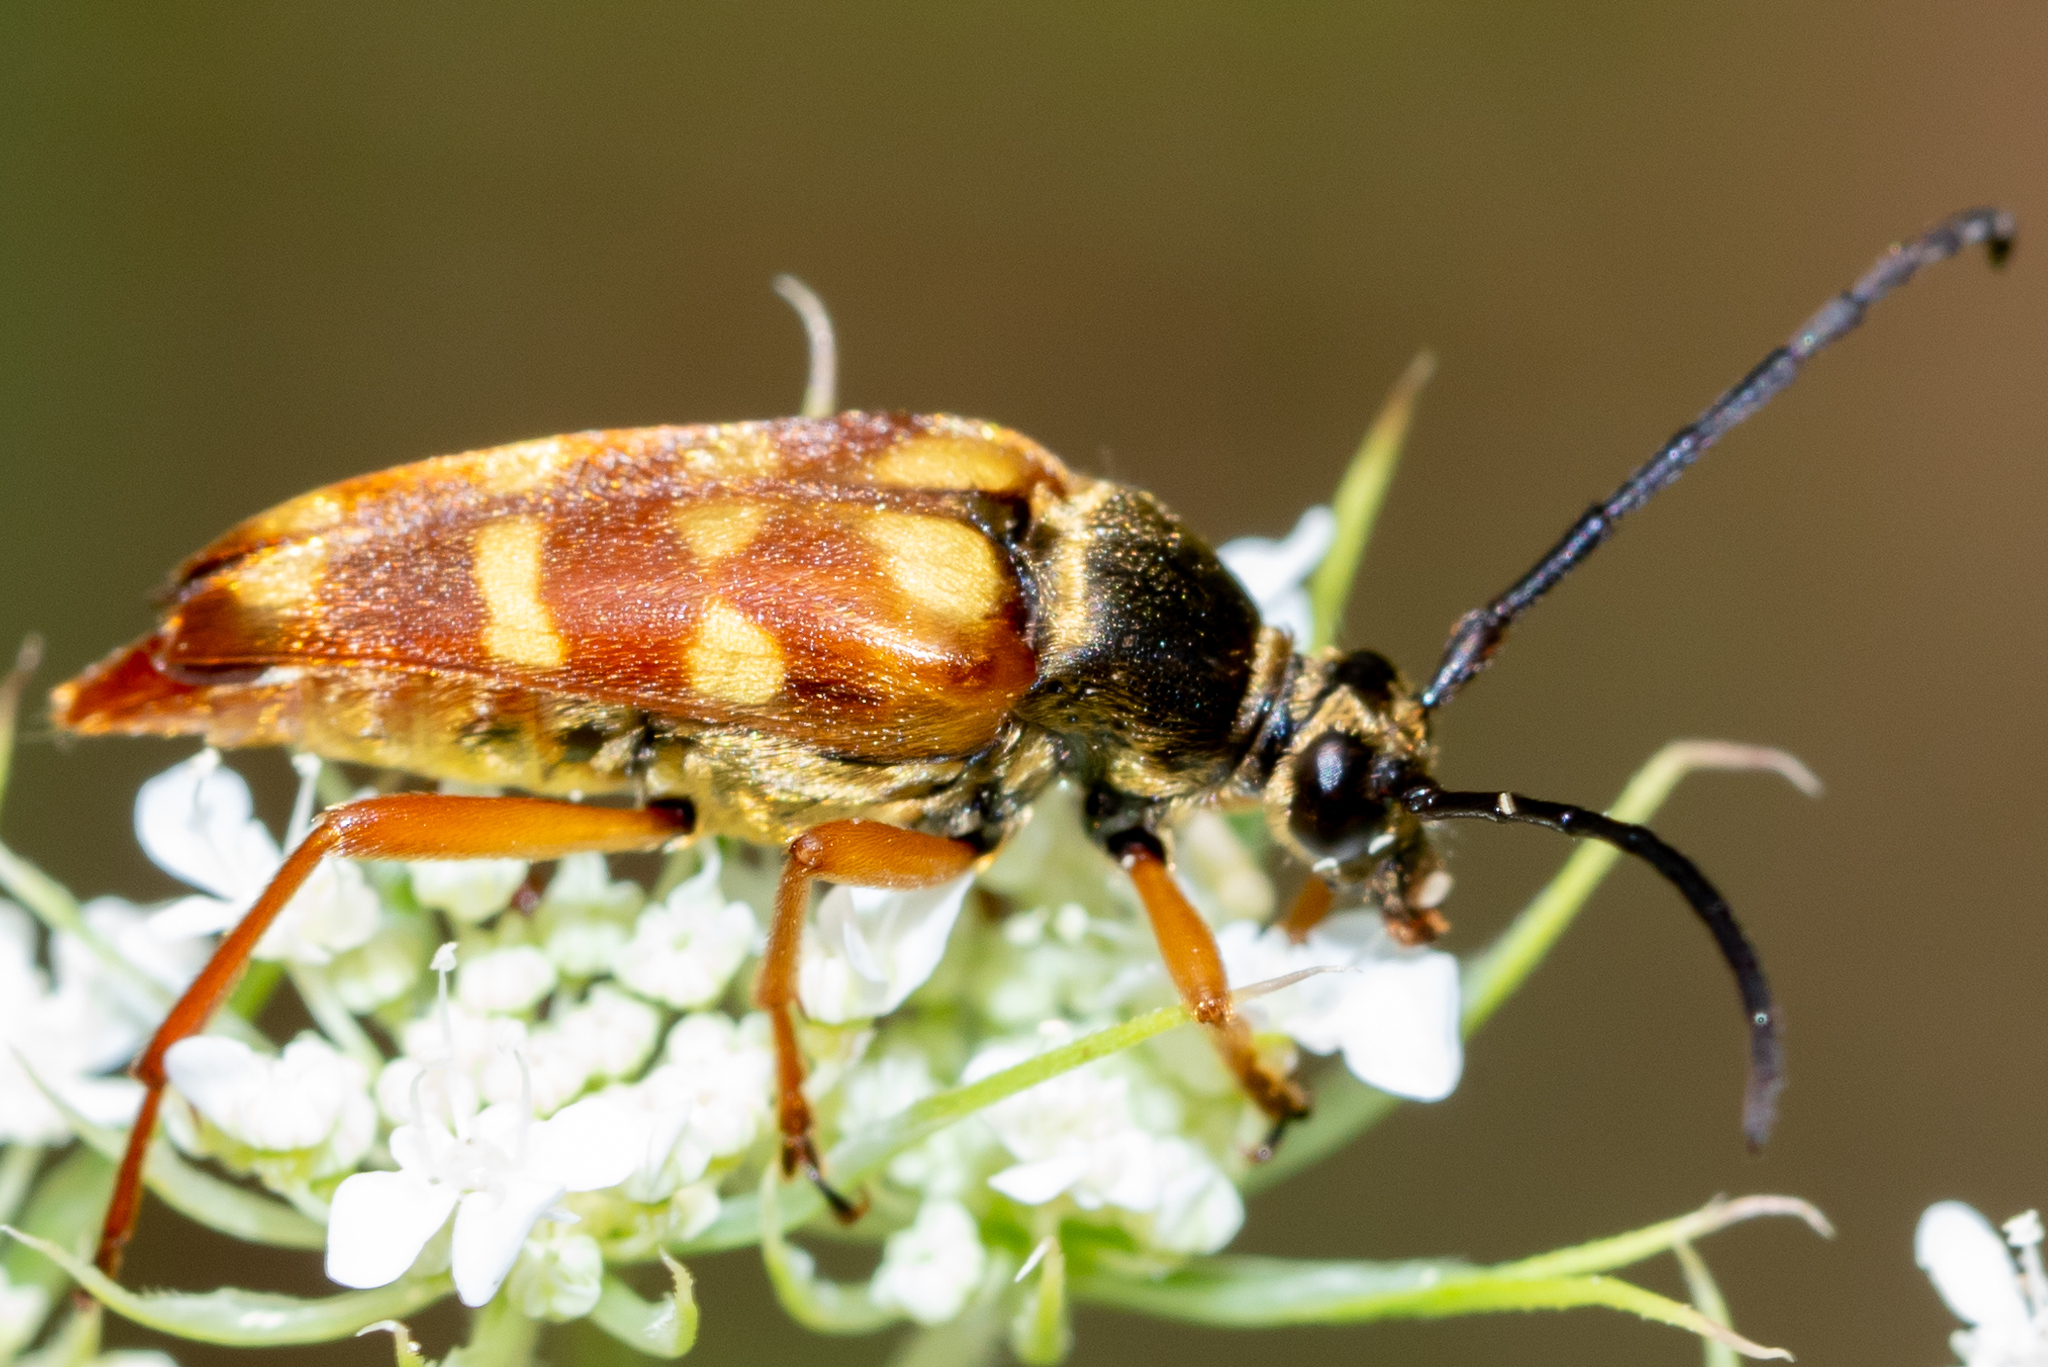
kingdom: Animalia
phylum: Arthropoda
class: Insecta
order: Coleoptera
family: Cerambycidae
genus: Typocerus
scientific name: Typocerus velutinus
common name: Banded longhorn beetle
